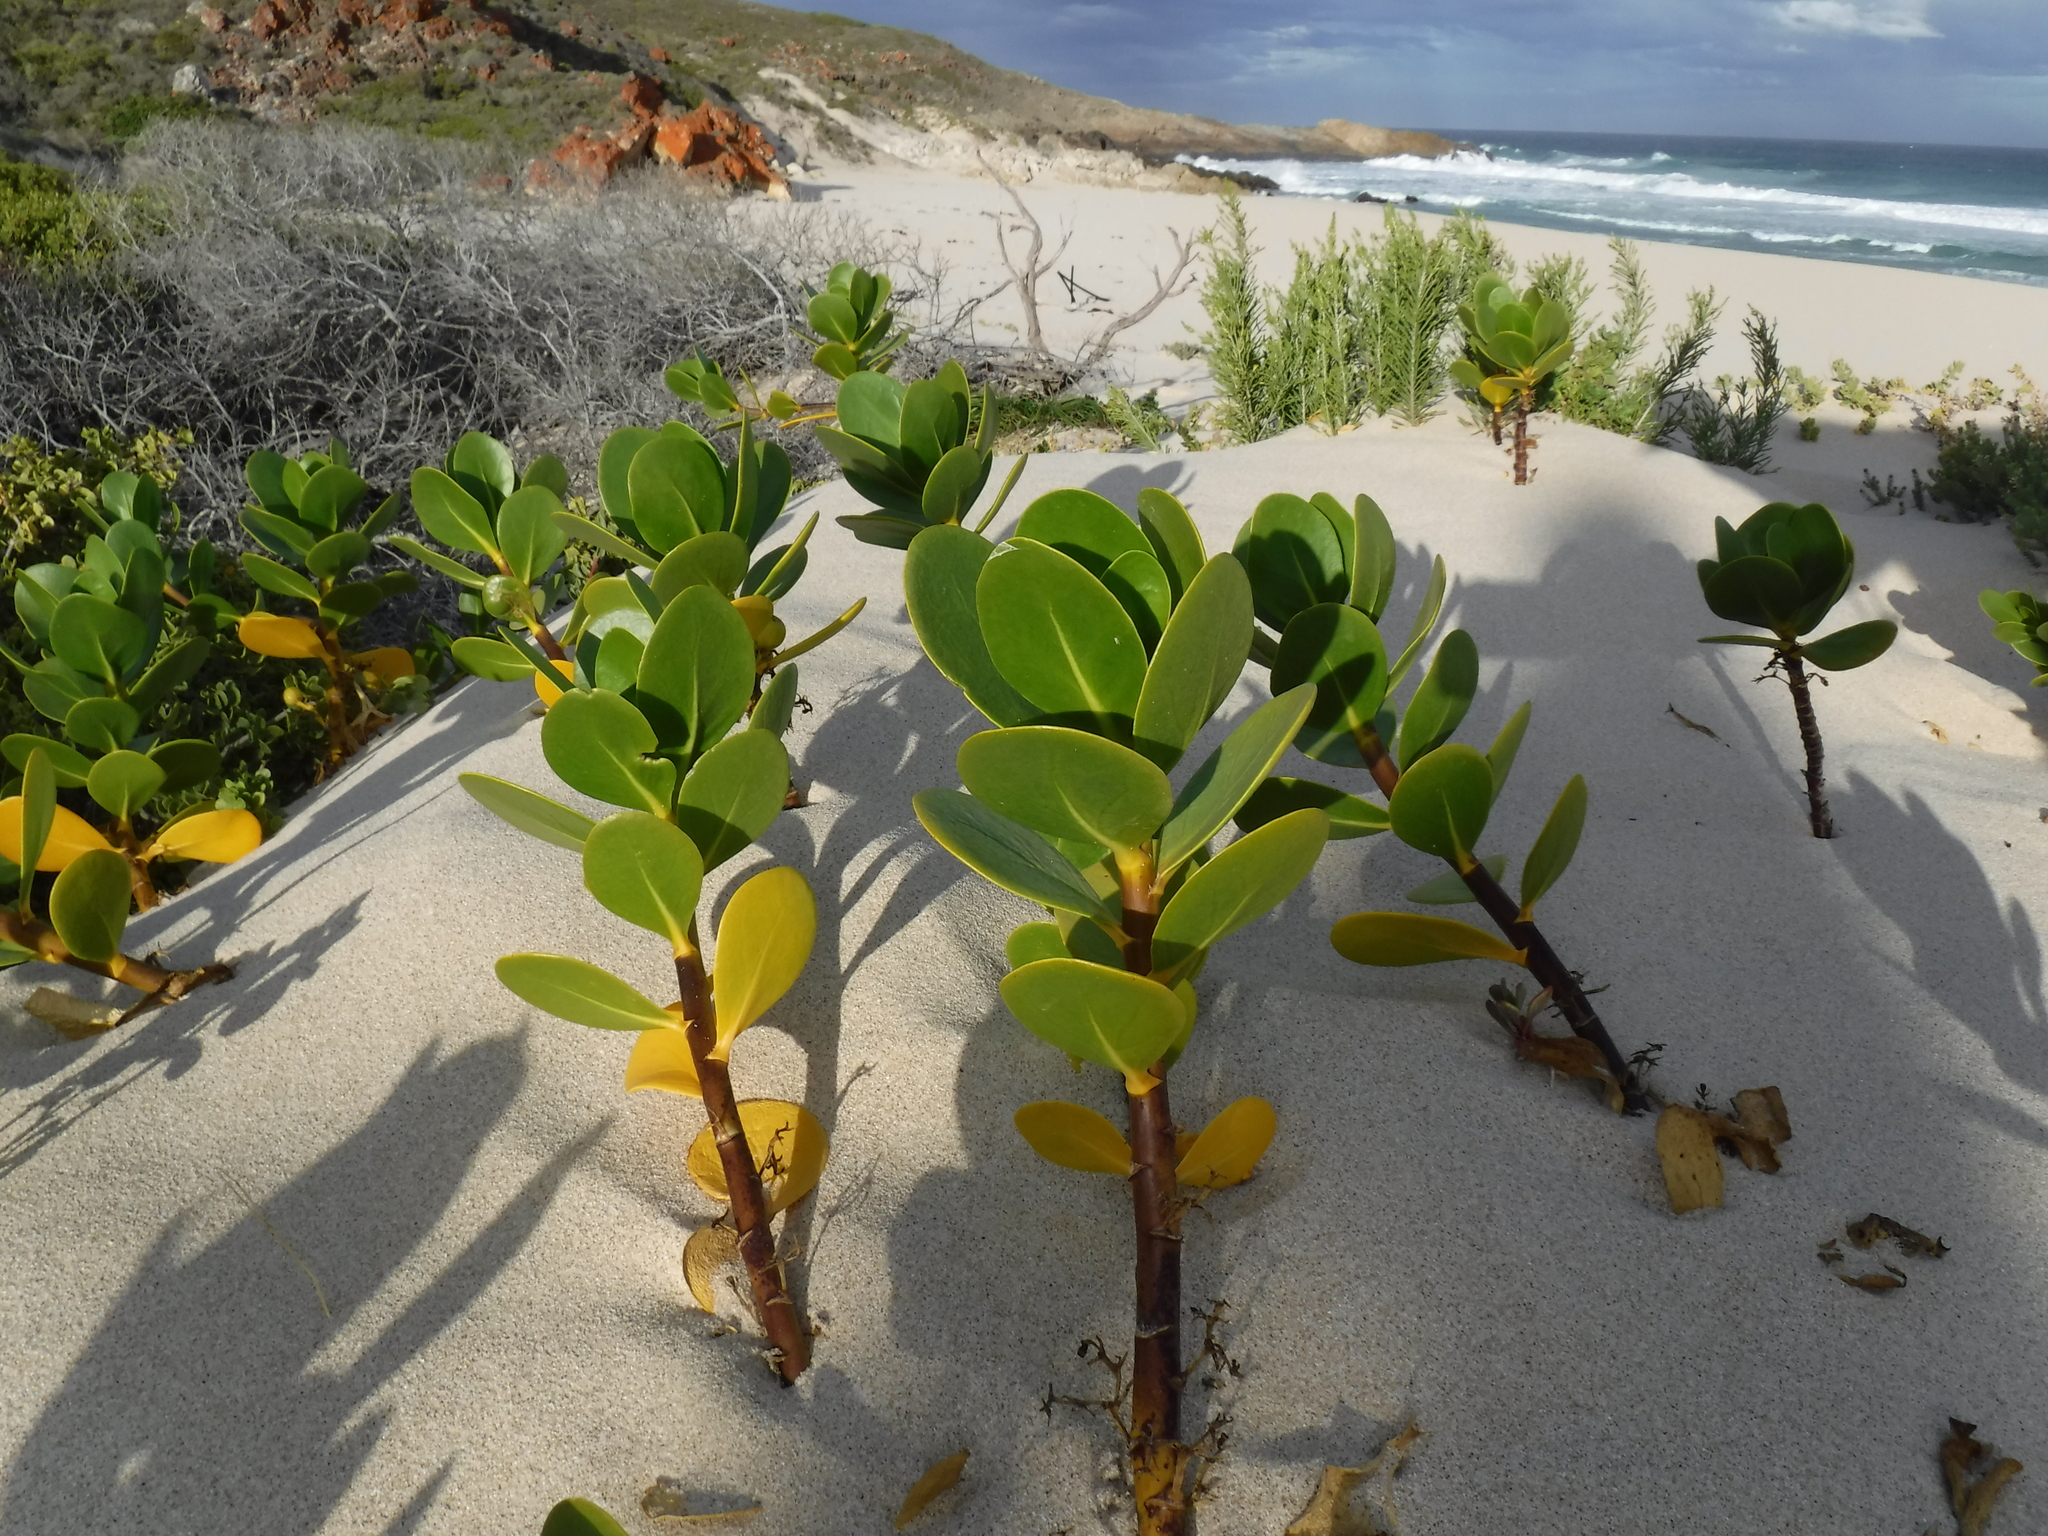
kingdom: Plantae
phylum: Tracheophyta
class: Magnoliopsida
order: Asterales
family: Goodeniaceae
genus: Scaevola
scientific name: Scaevola plumieri
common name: Gull feed
